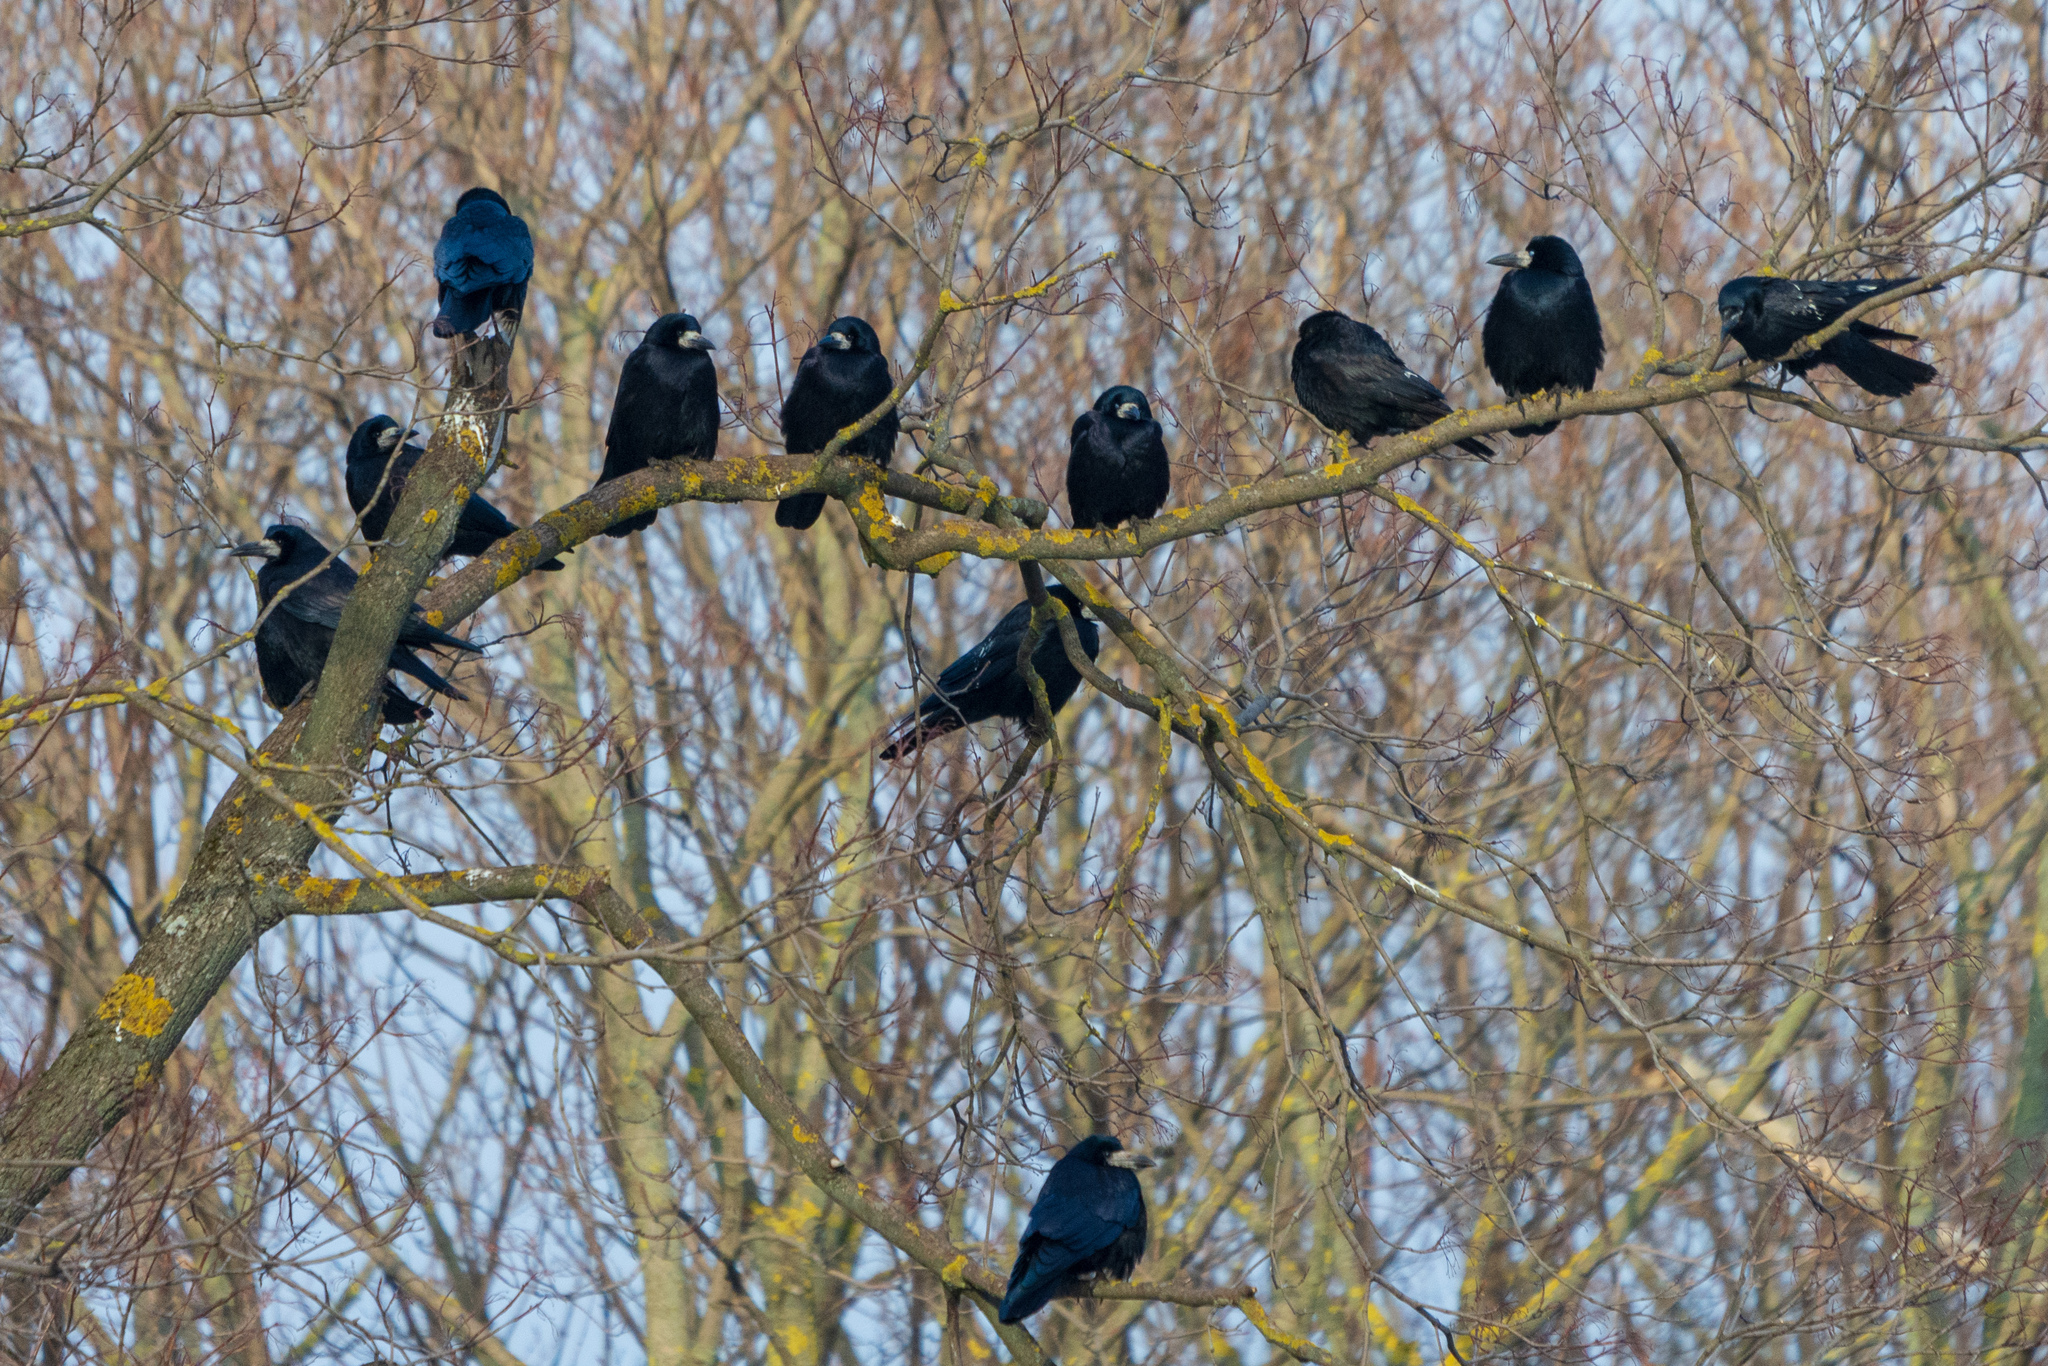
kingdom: Animalia
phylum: Chordata
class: Aves
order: Passeriformes
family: Corvidae
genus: Corvus
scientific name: Corvus frugilegus
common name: Rook
